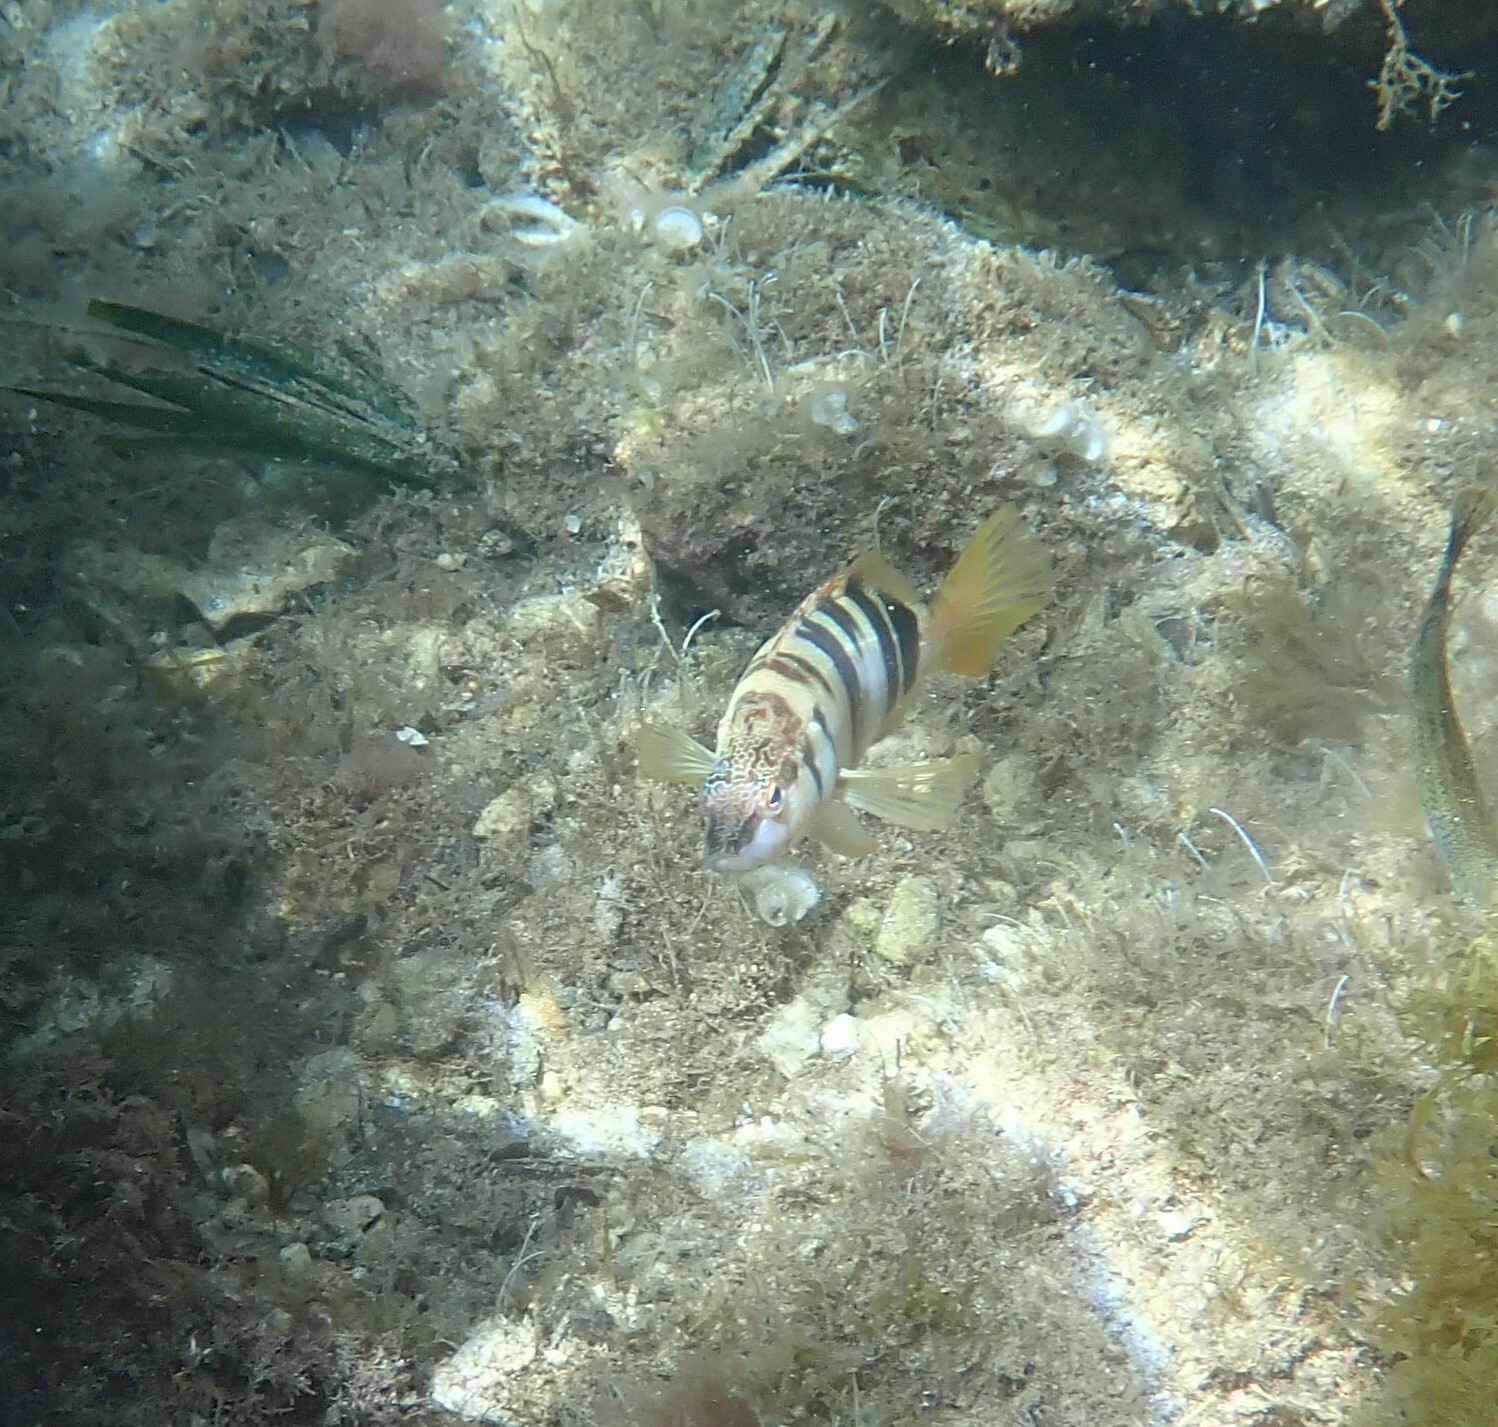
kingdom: Animalia
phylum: Chordata
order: Perciformes
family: Serranidae
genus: Serranus
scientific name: Serranus scriba
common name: Painted comber
